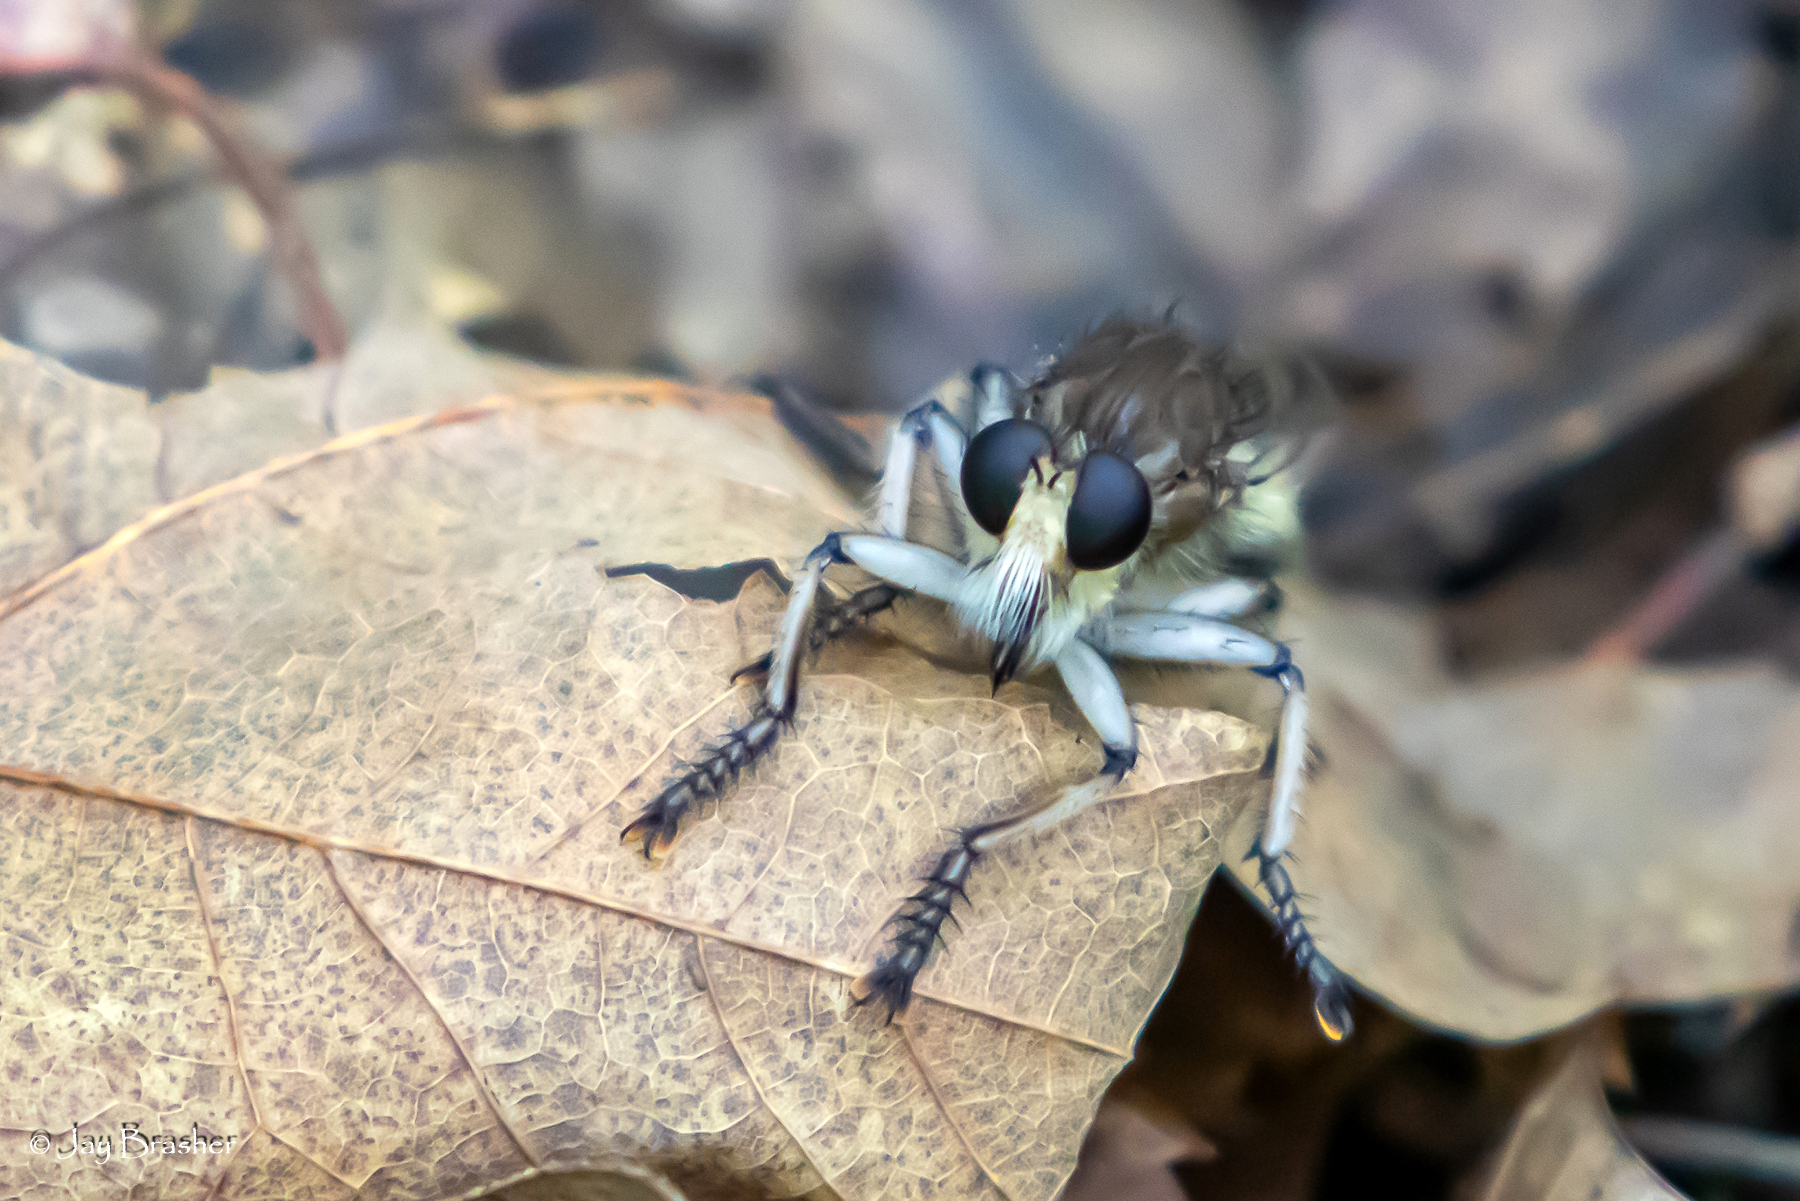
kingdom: Animalia
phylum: Arthropoda
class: Insecta
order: Diptera
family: Asilidae
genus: Promachus
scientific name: Promachus hinei
